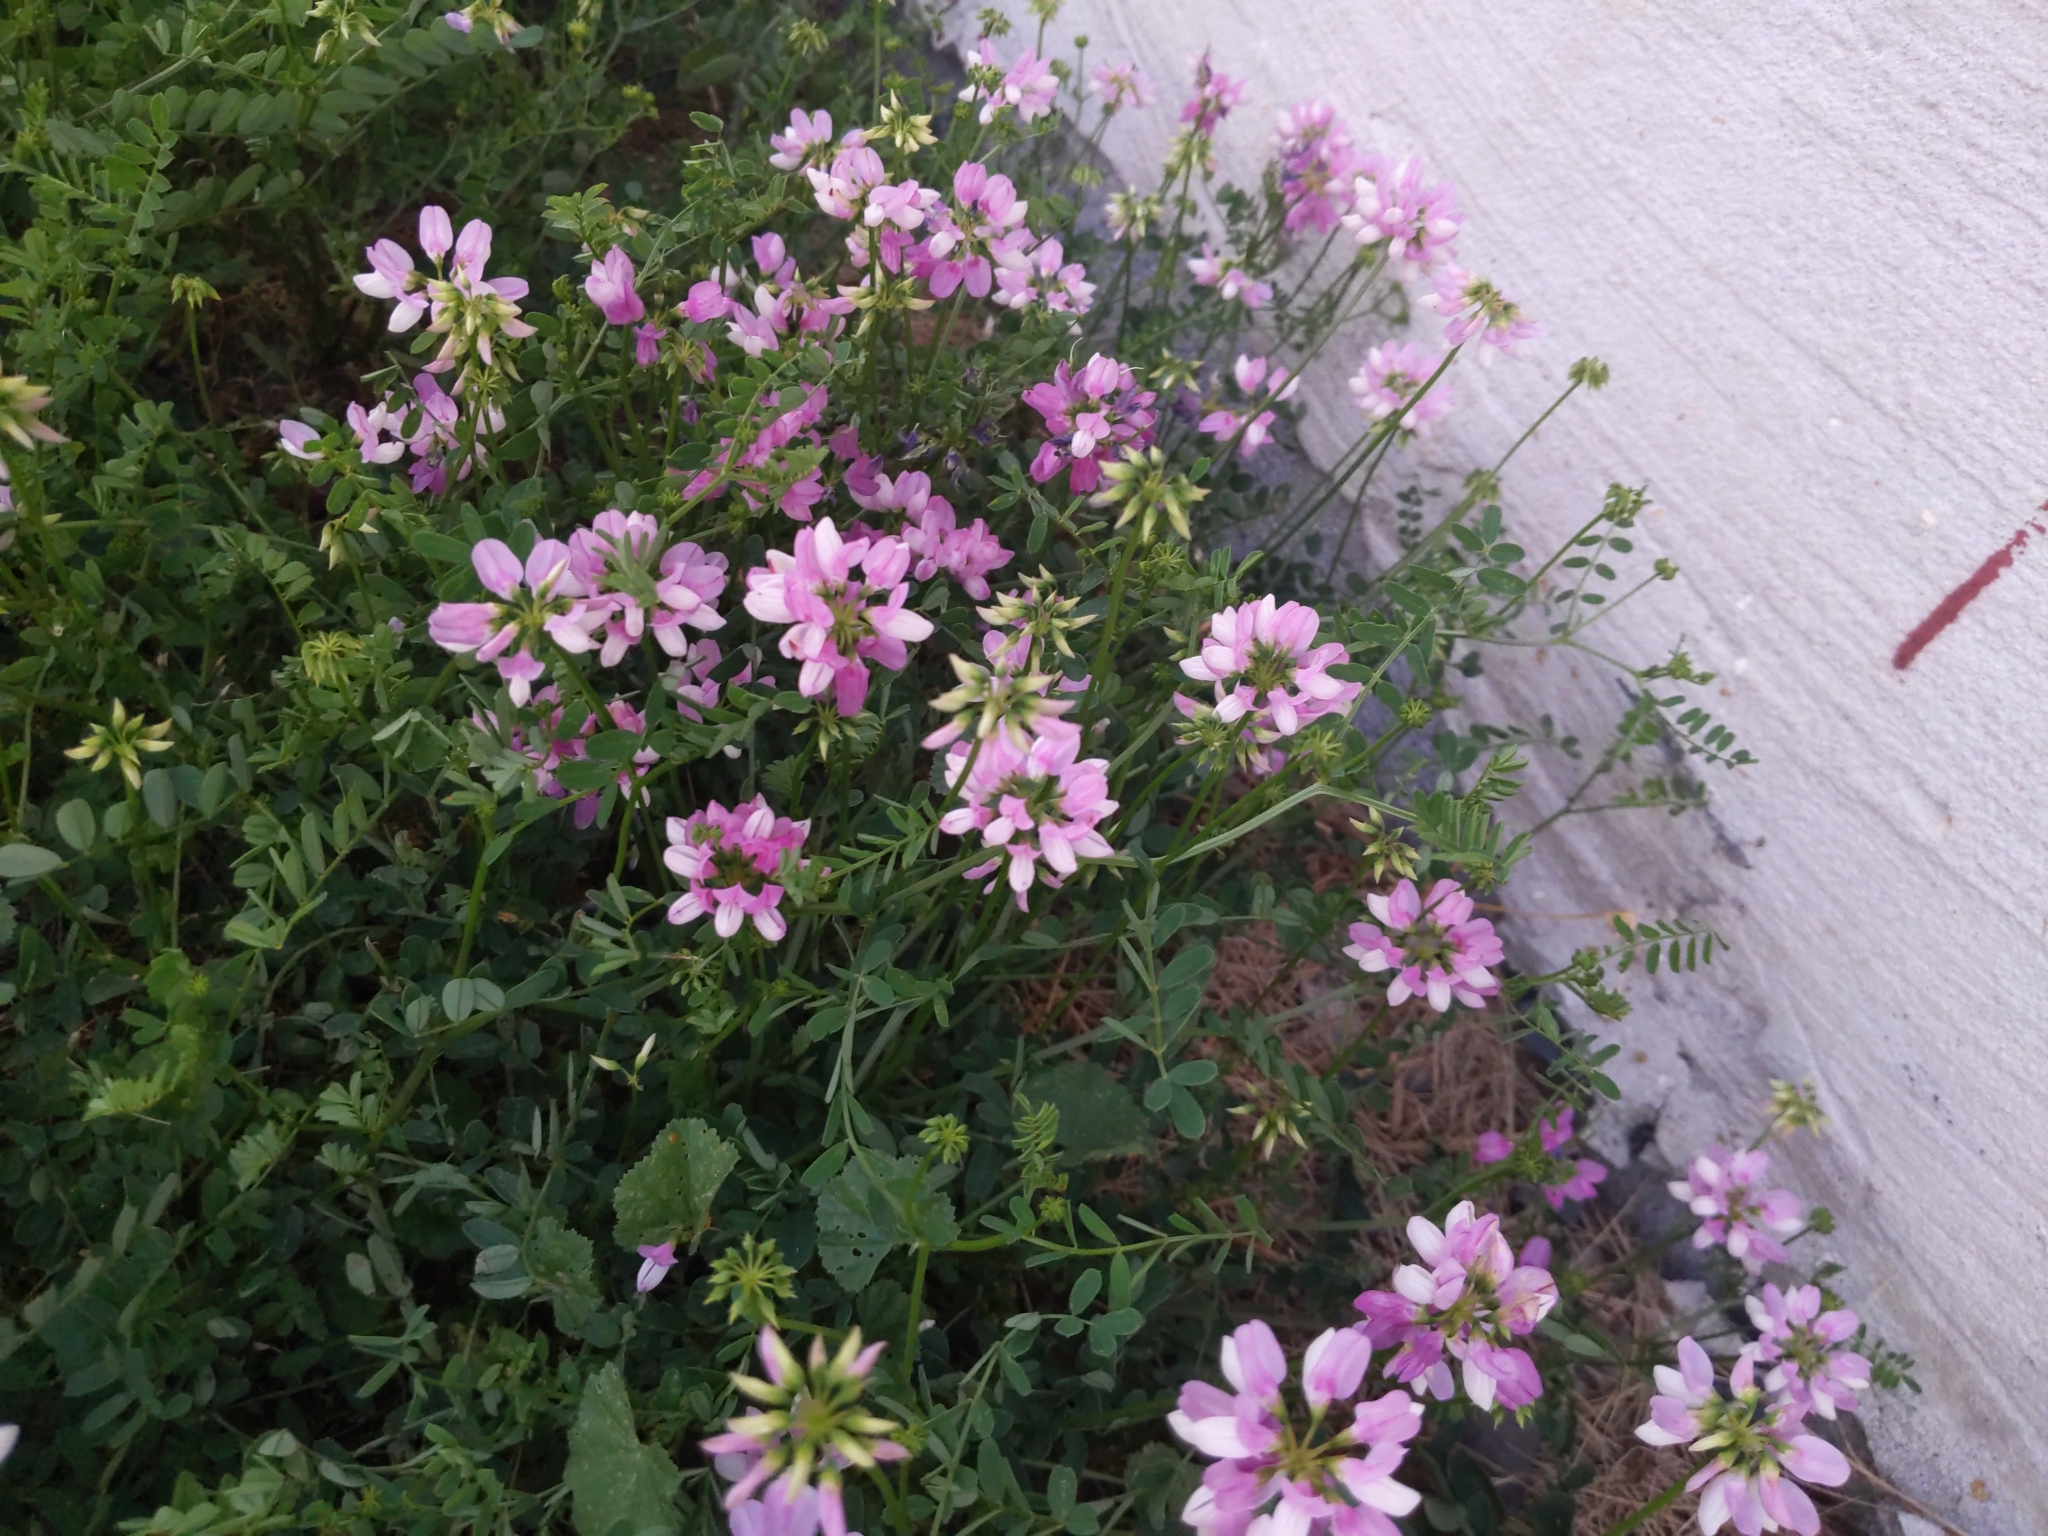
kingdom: Plantae
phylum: Tracheophyta
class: Magnoliopsida
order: Fabales
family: Fabaceae
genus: Coronilla
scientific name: Coronilla varia
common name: Crownvetch
